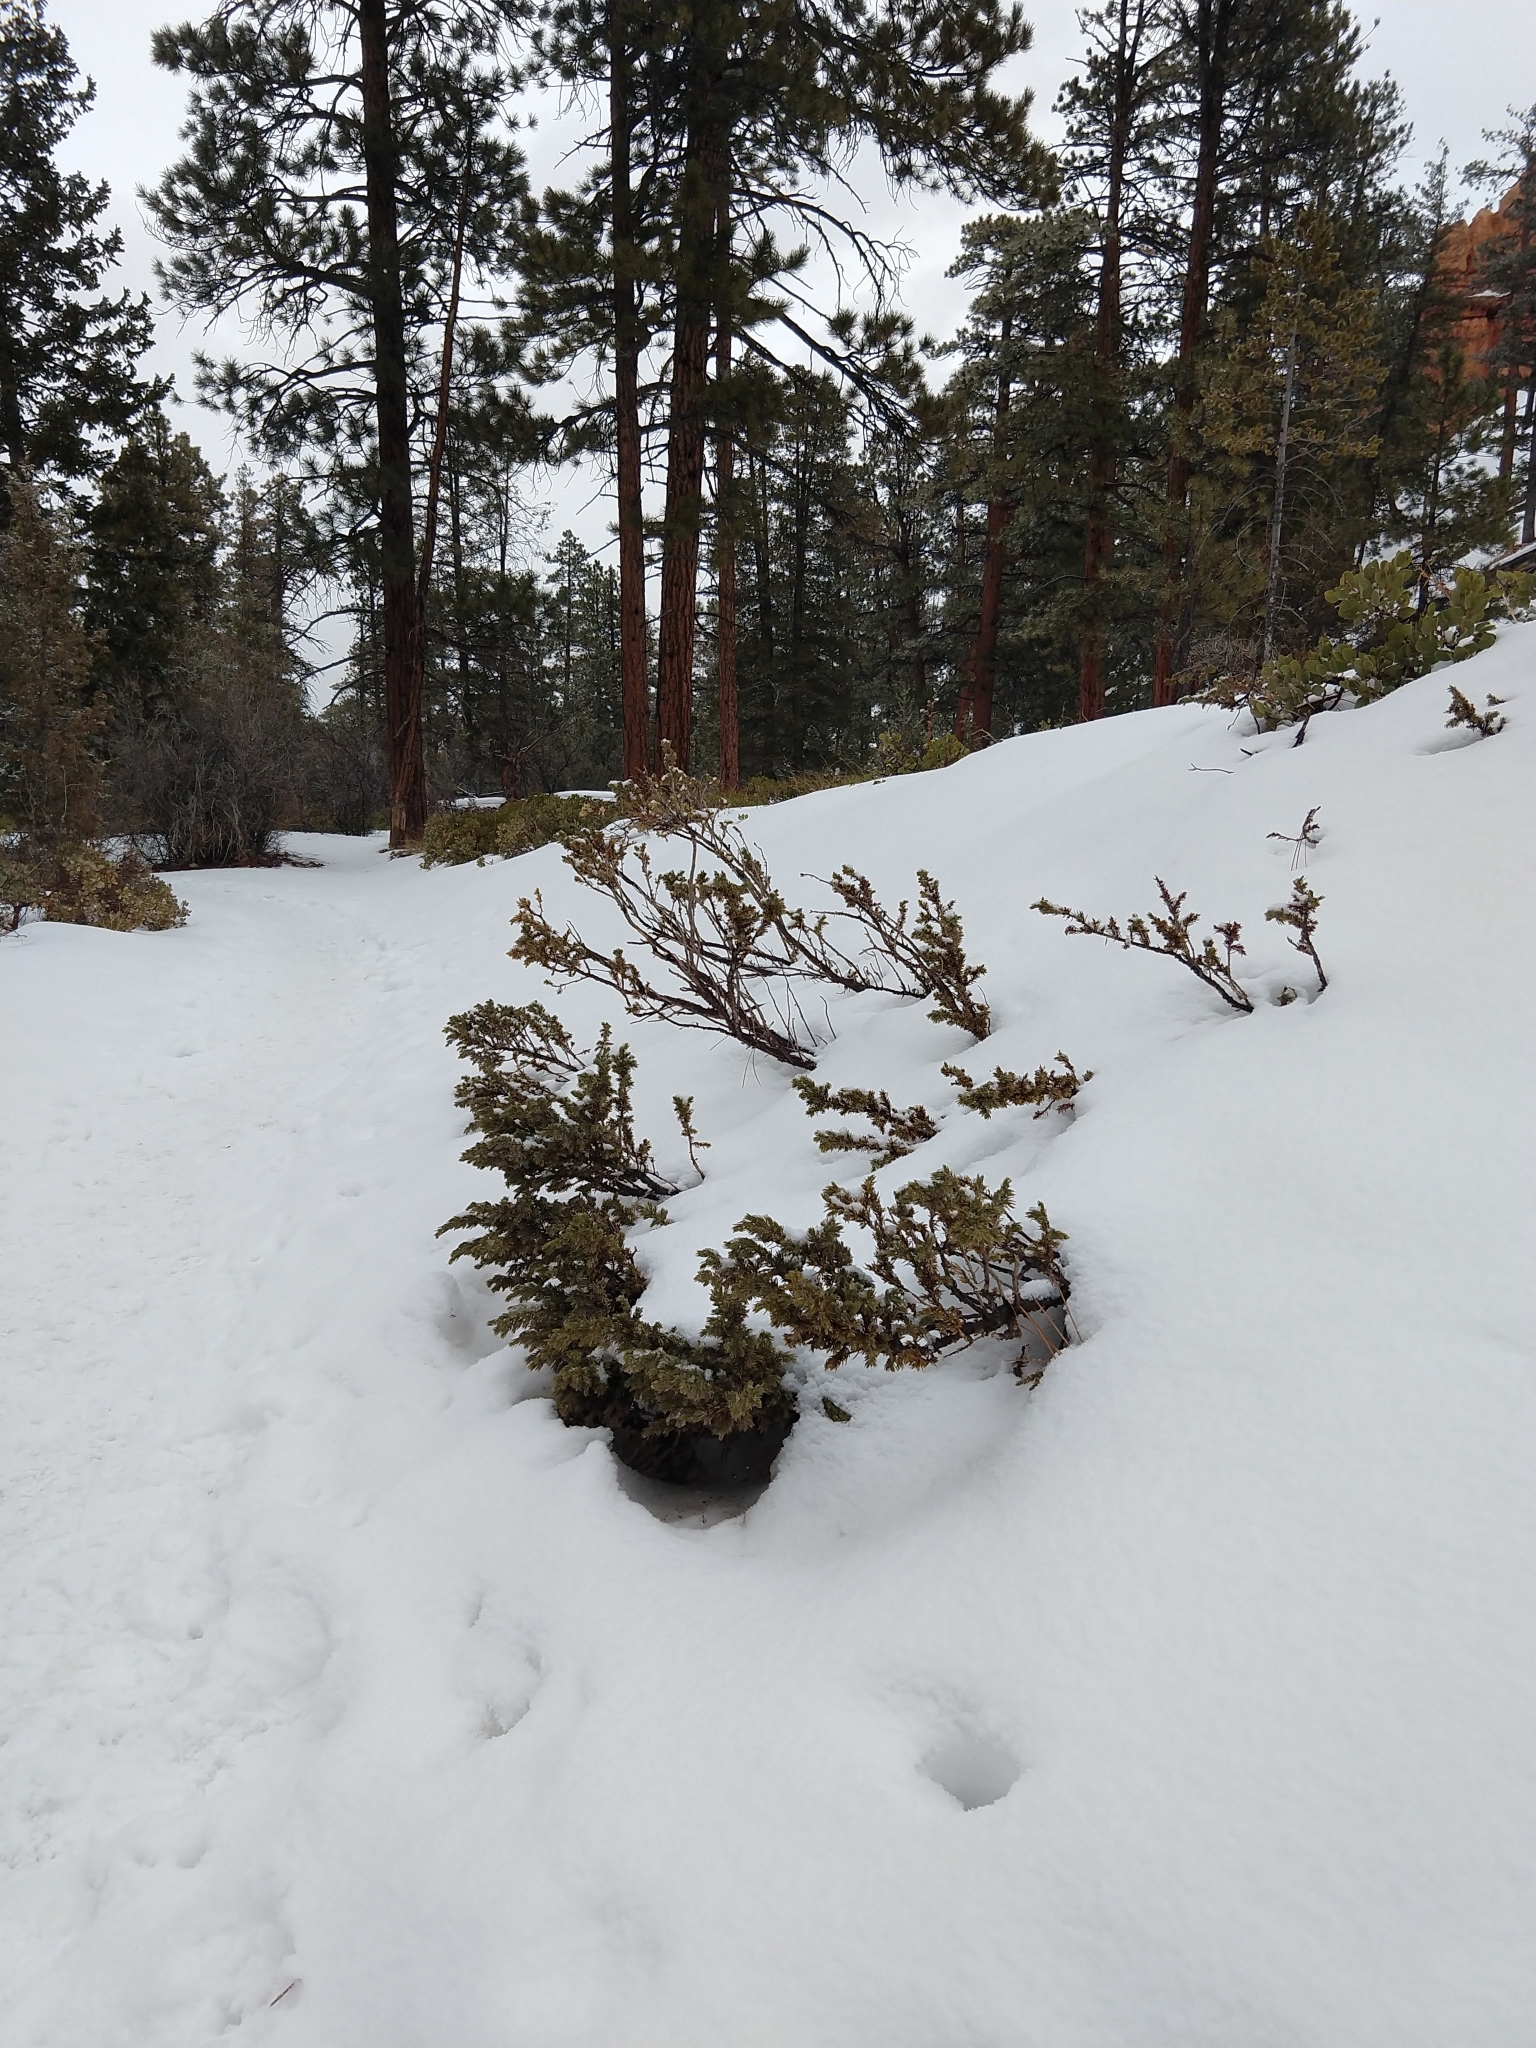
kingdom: Plantae
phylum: Tracheophyta
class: Pinopsida
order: Pinales
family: Cupressaceae
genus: Juniperus
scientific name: Juniperus communis
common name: Common juniper
